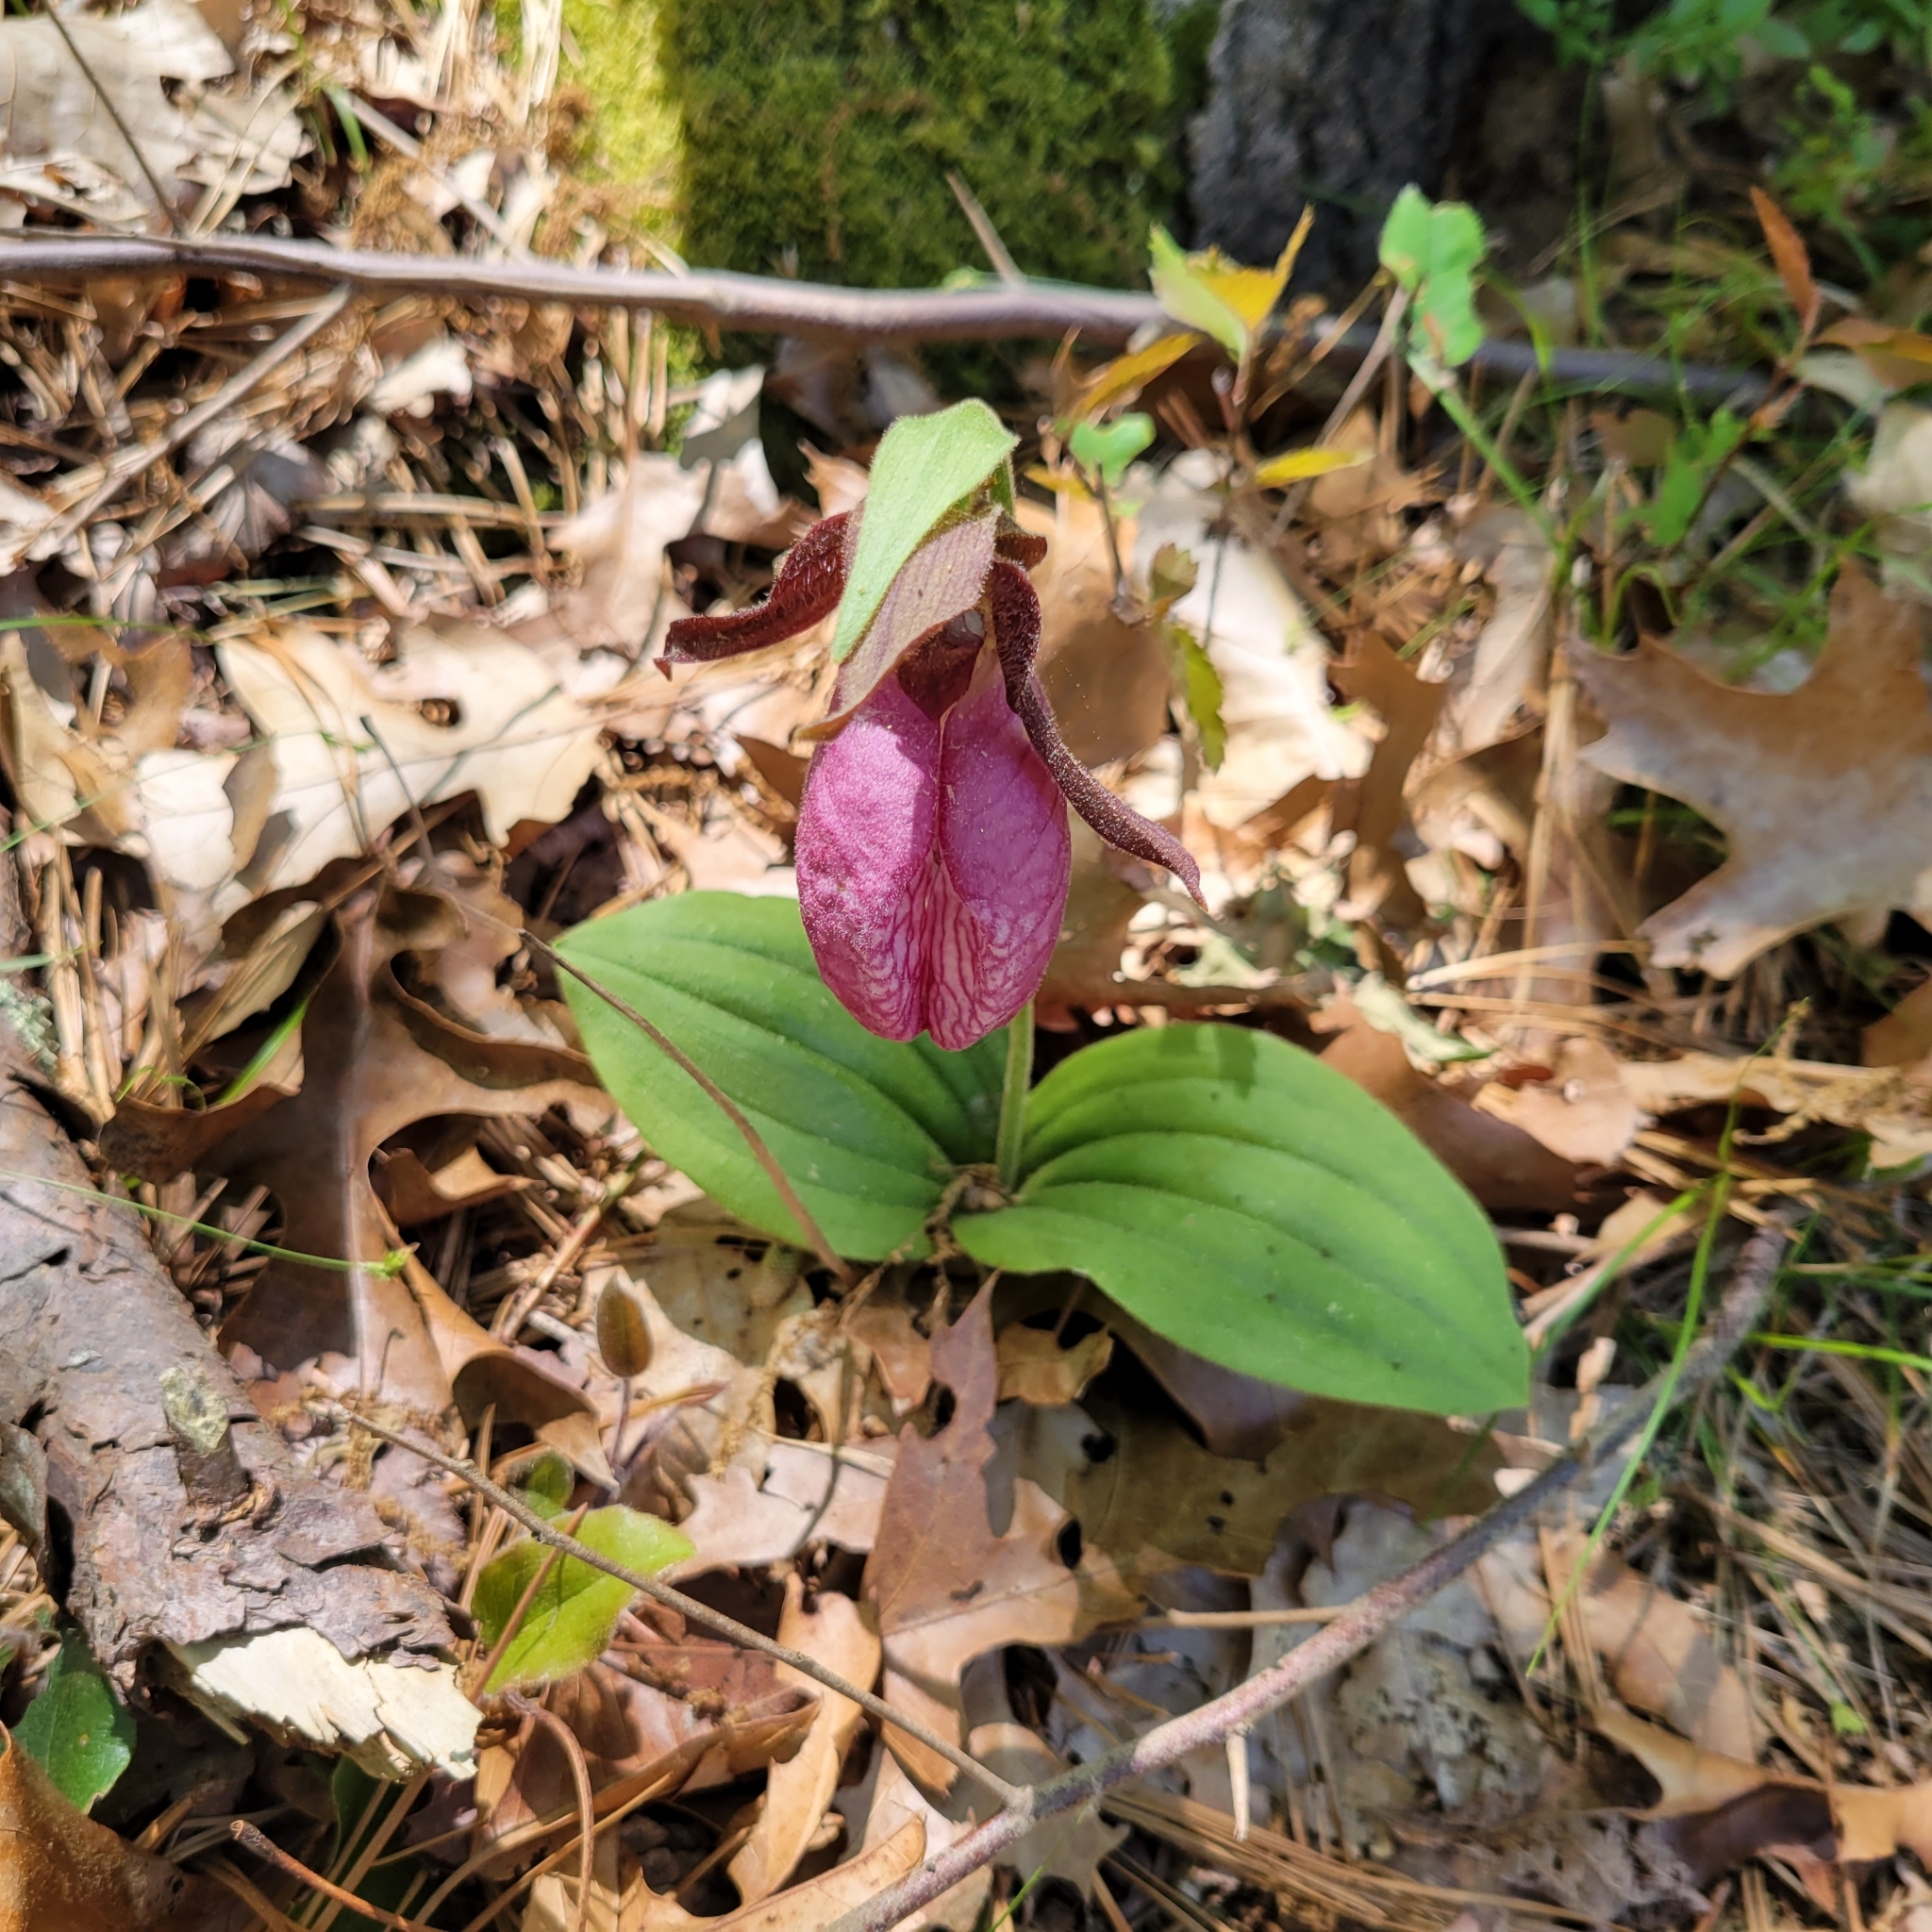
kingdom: Plantae
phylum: Tracheophyta
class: Liliopsida
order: Asparagales
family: Orchidaceae
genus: Cypripedium
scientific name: Cypripedium acaule
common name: Pink lady's-slipper
